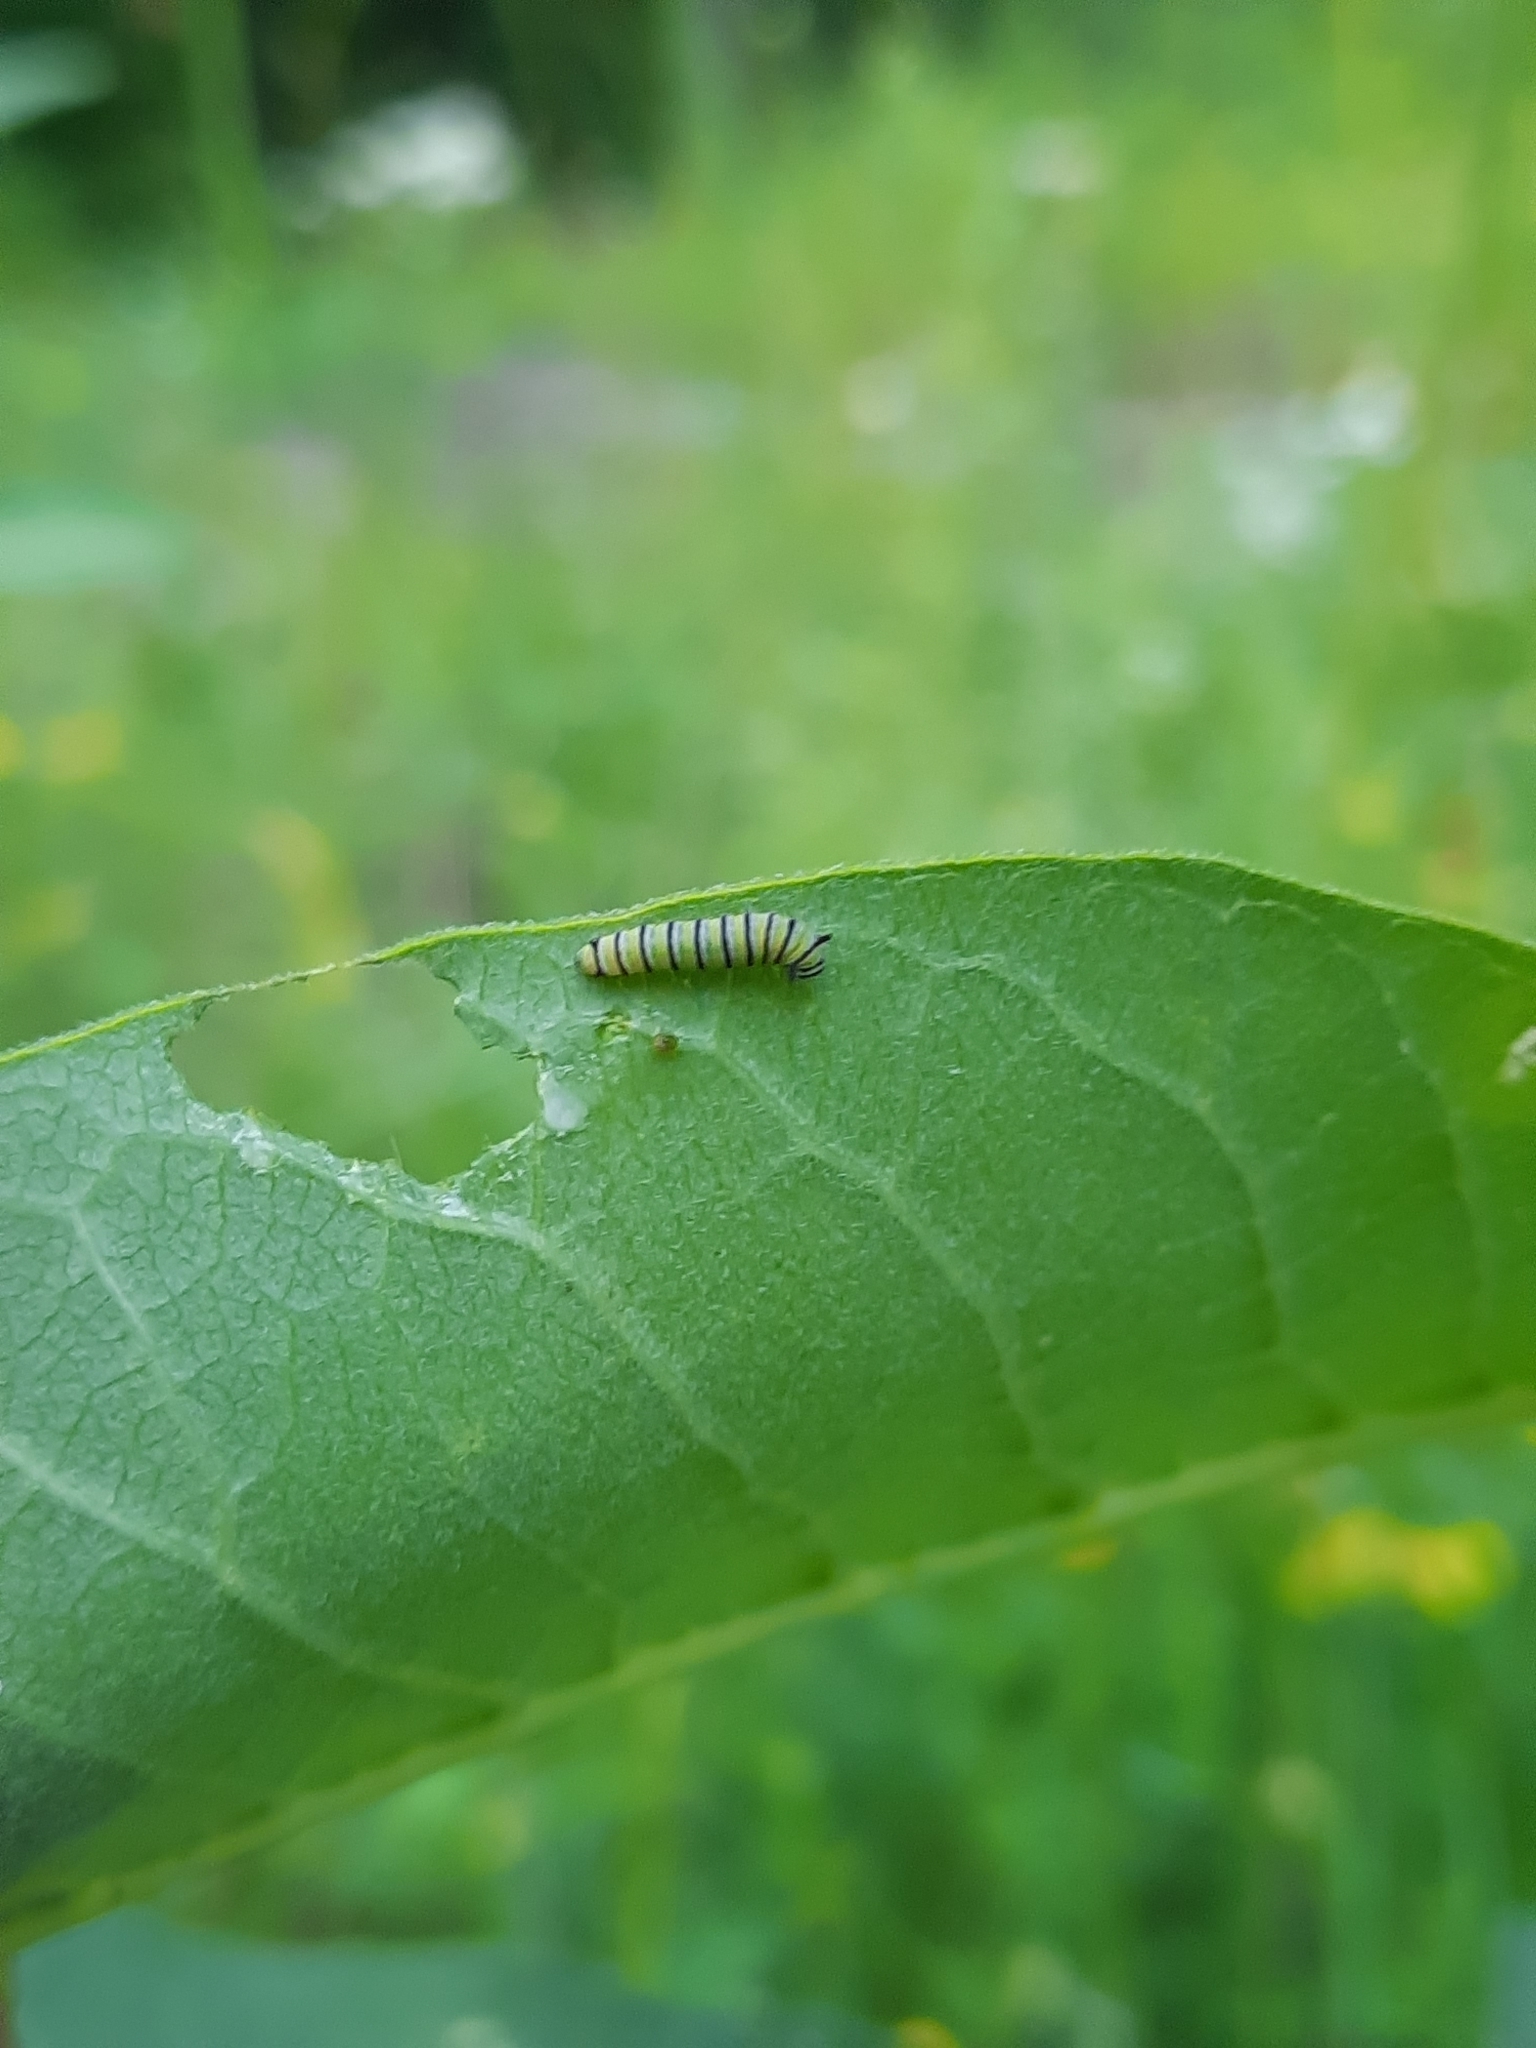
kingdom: Animalia
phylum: Arthropoda
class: Insecta
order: Lepidoptera
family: Nymphalidae
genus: Danaus
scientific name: Danaus plexippus
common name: Monarch
